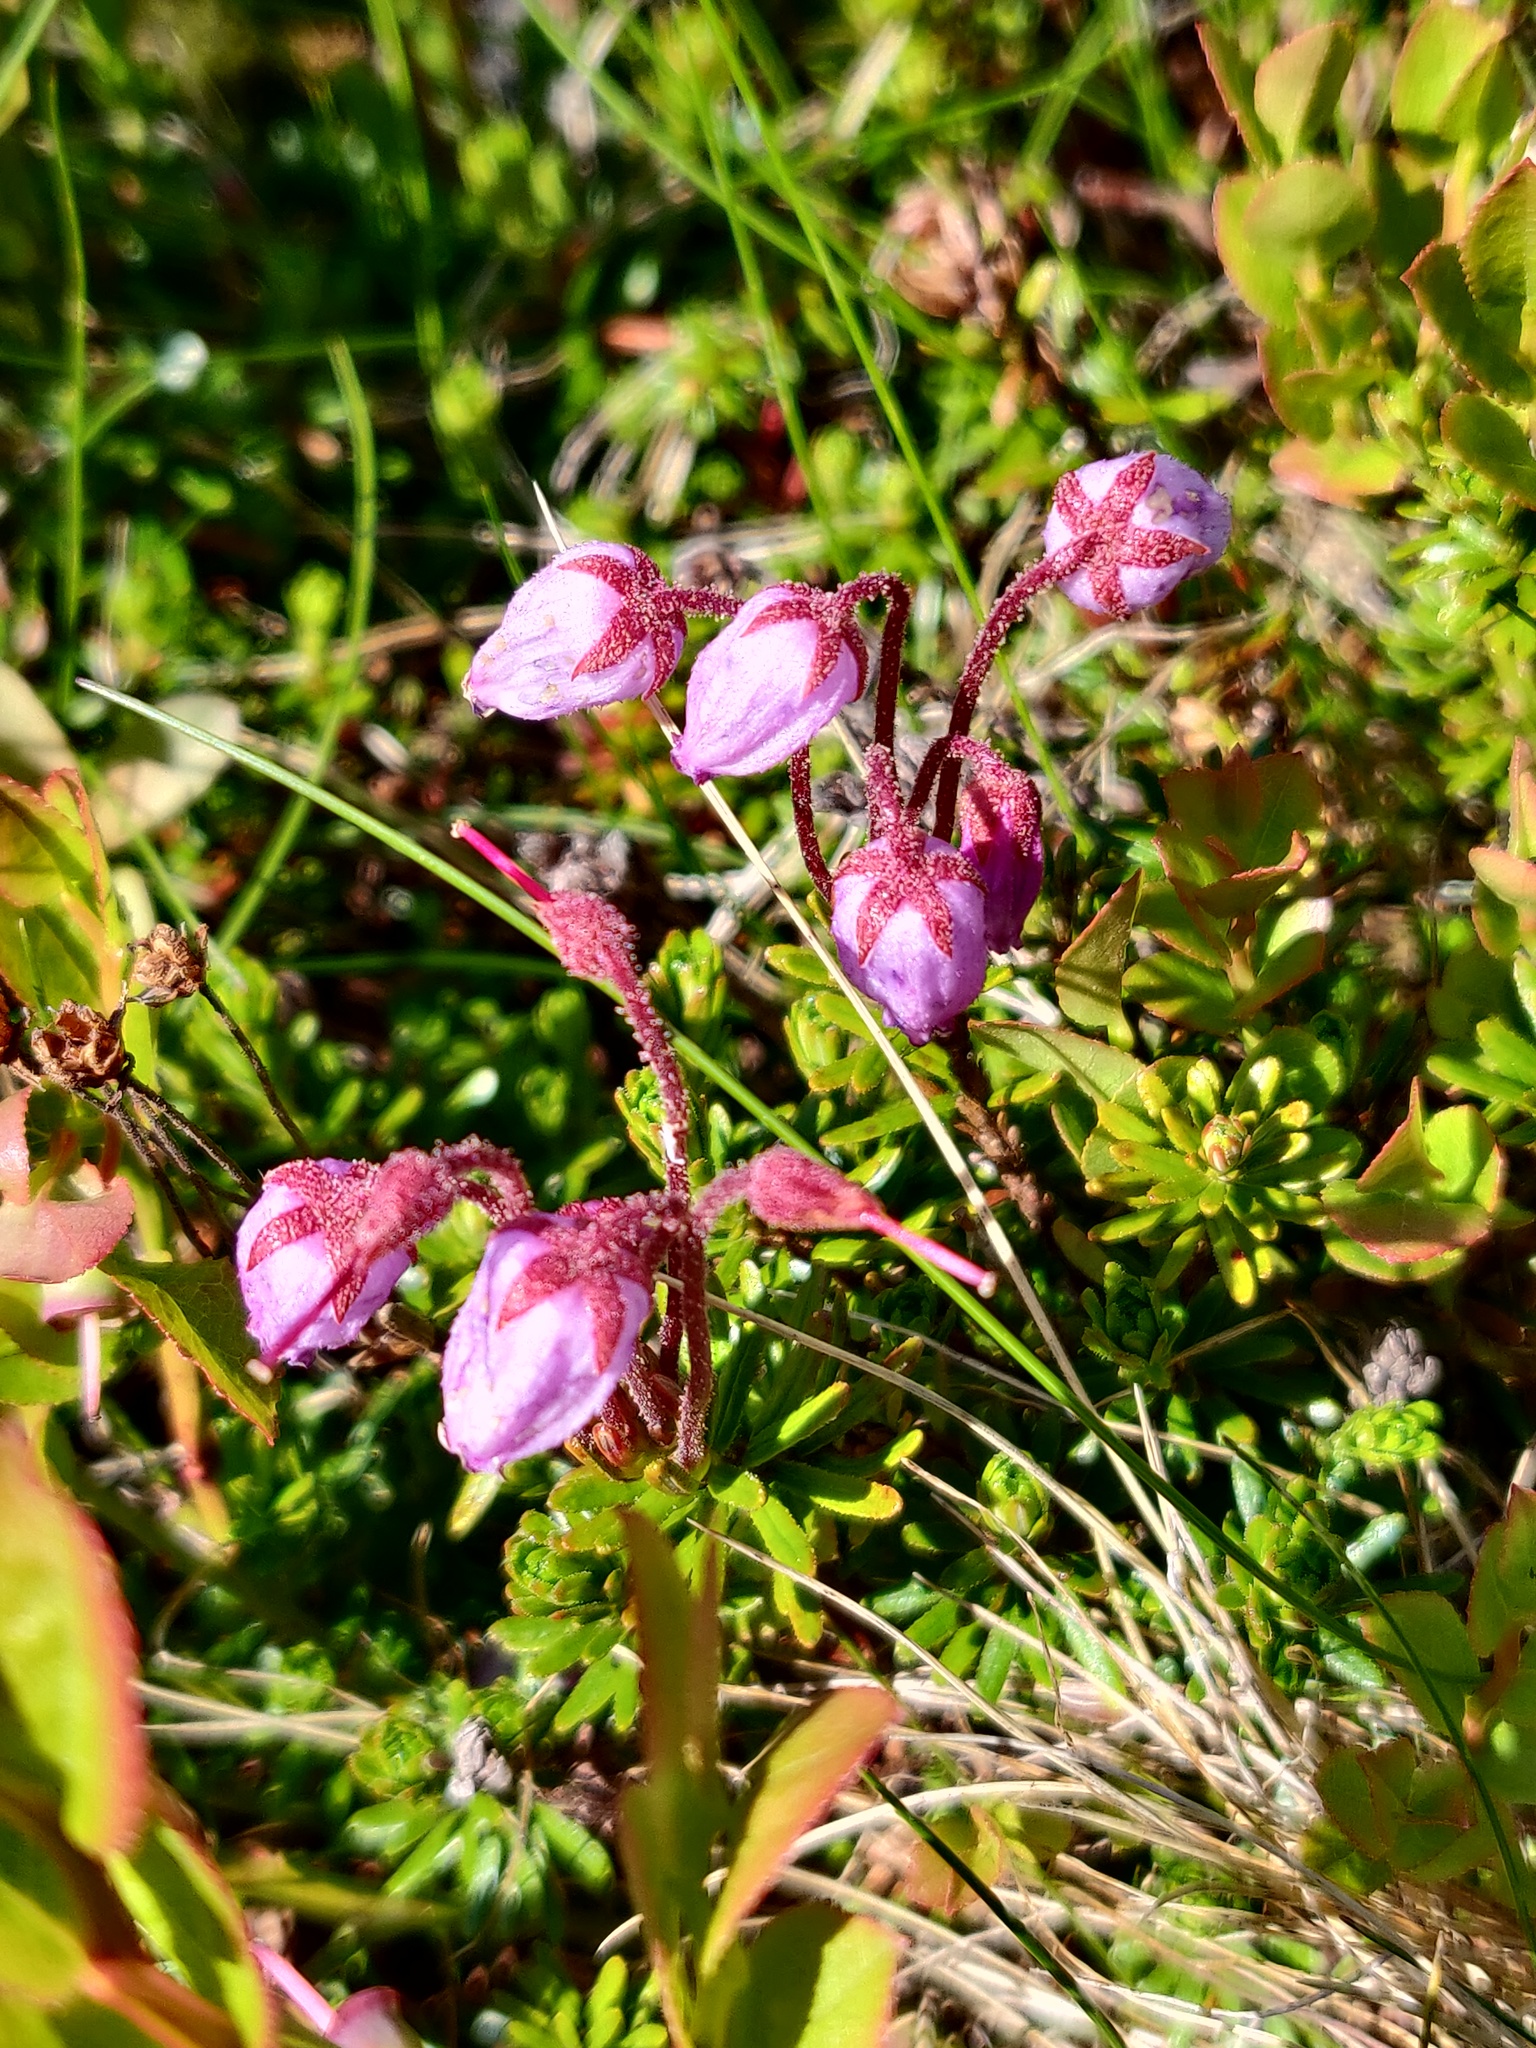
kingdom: Plantae
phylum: Tracheophyta
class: Magnoliopsida
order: Ericales
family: Ericaceae
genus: Phyllodoce
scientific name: Phyllodoce caerulea
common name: Blue heath
